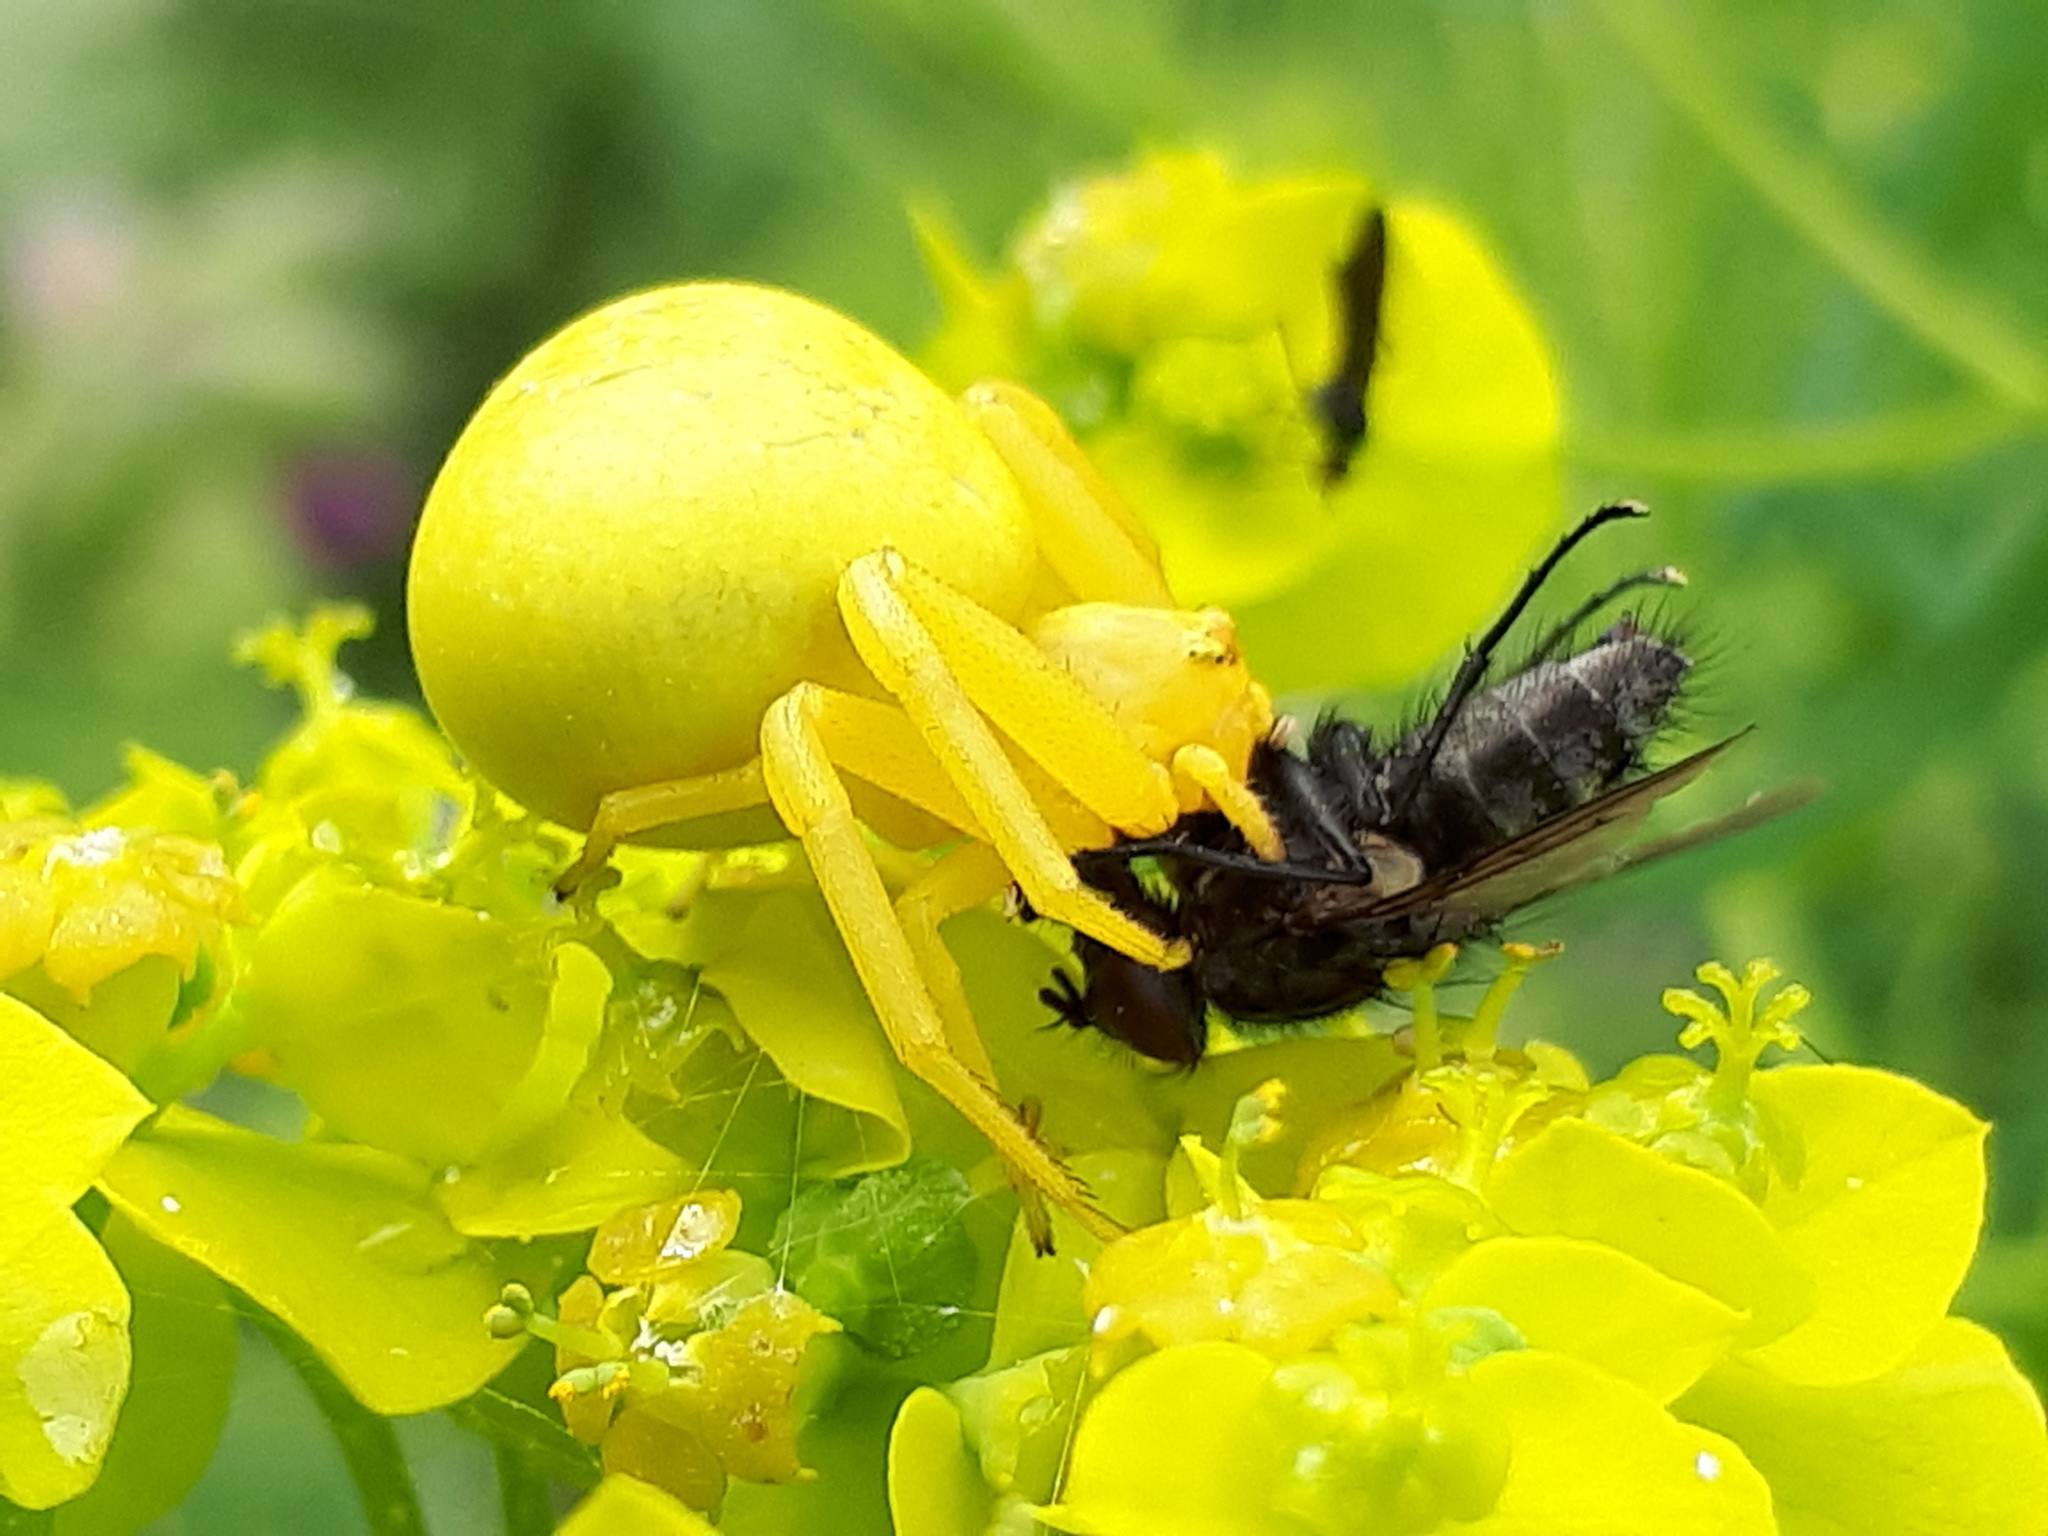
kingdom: Animalia
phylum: Arthropoda
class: Arachnida
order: Araneae
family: Thomisidae
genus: Misumena
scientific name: Misumena vatia
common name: Goldenrod crab spider
